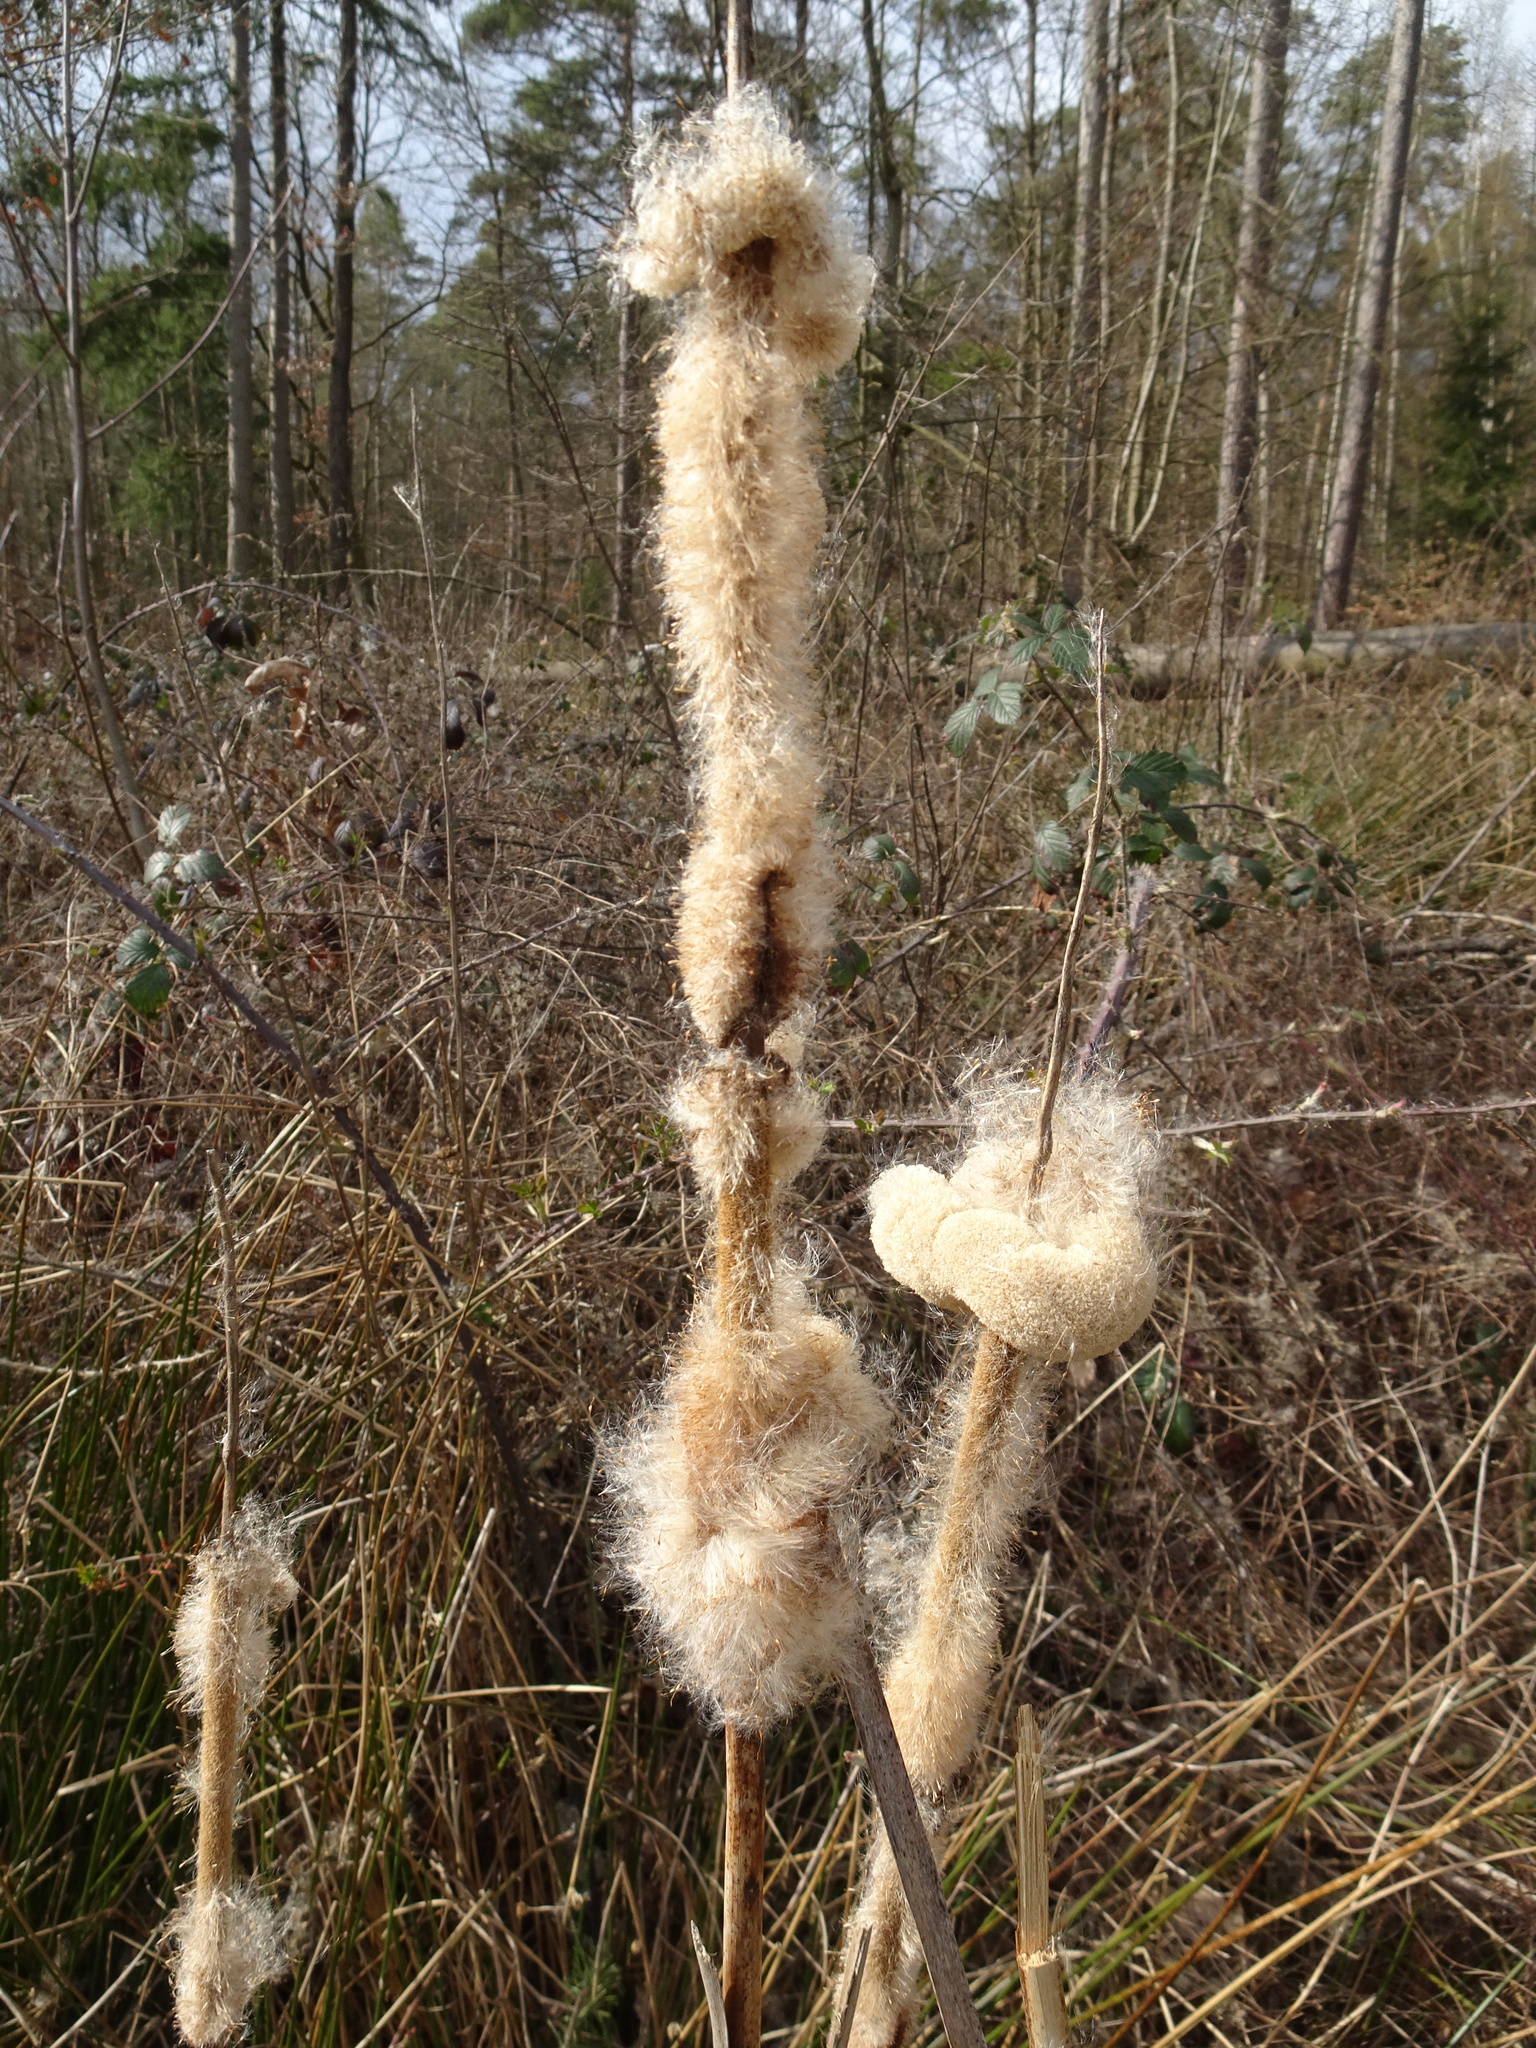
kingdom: Plantae
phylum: Tracheophyta
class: Liliopsida
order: Poales
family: Typhaceae
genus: Typha
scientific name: Typha latifolia
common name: Broadleaf cattail
